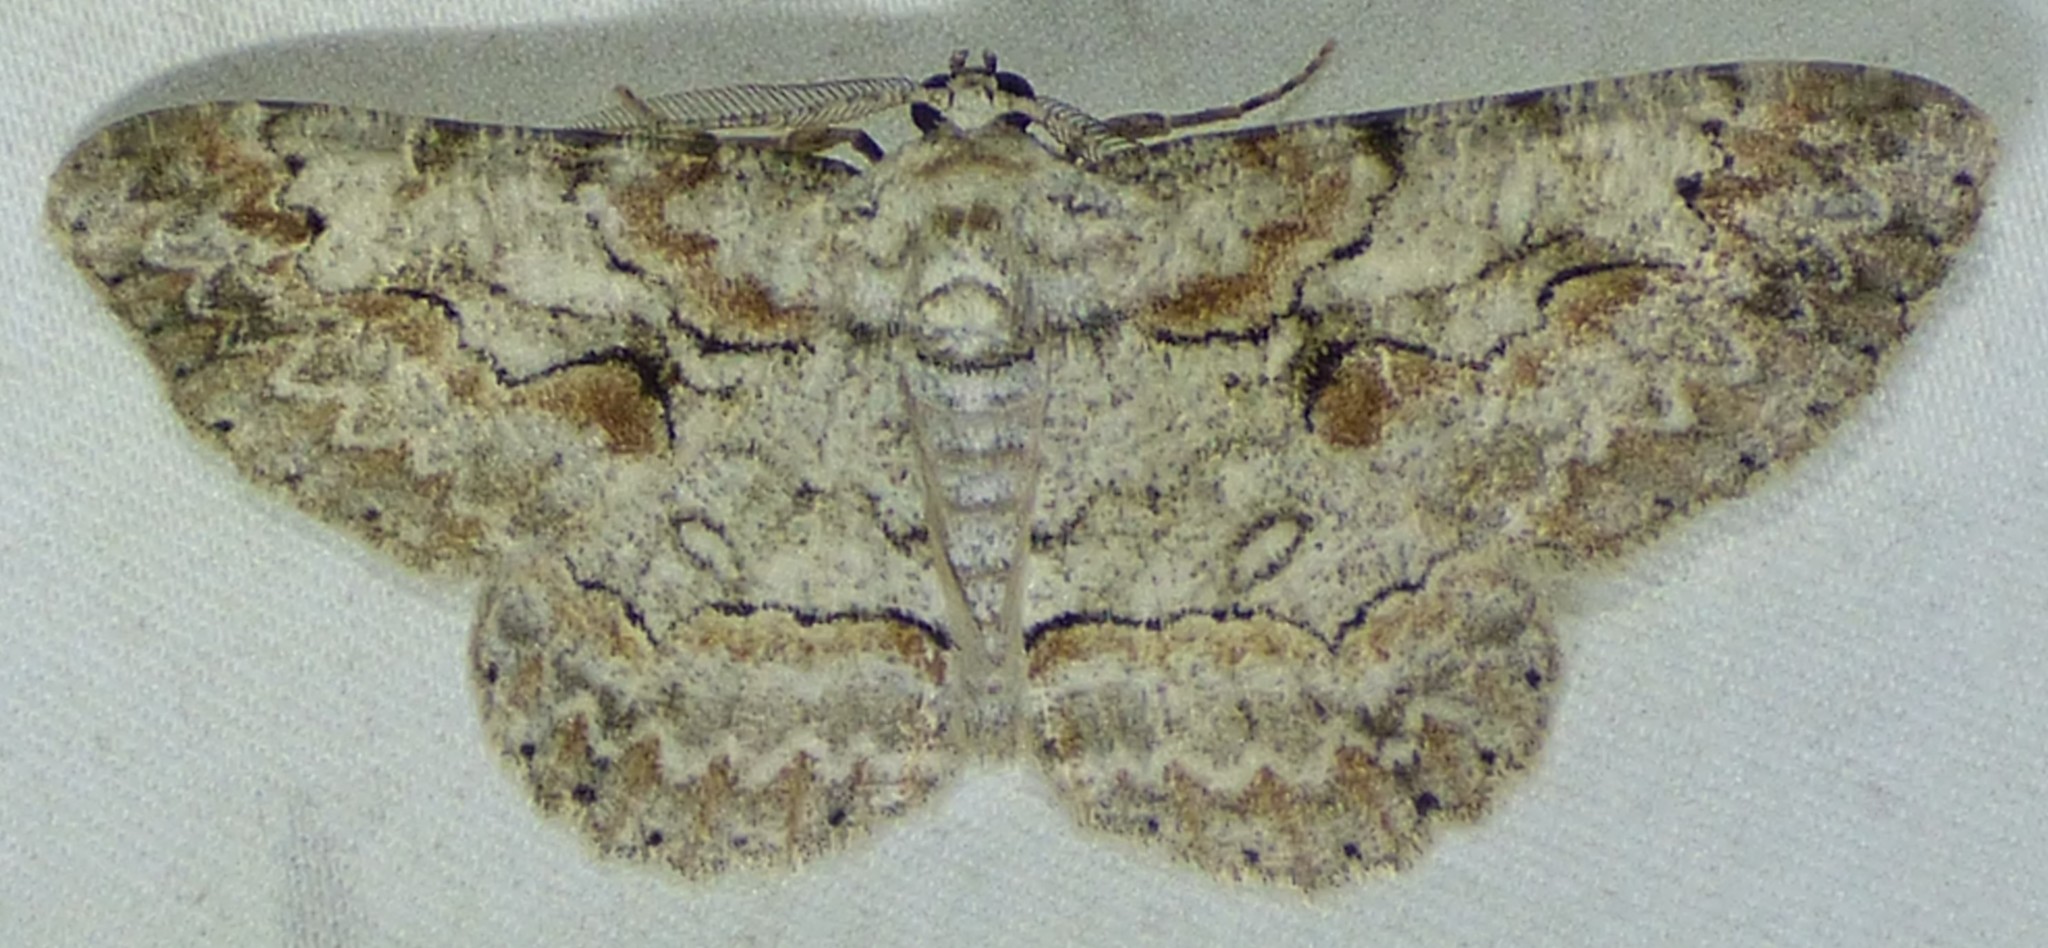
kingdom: Animalia
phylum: Arthropoda
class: Insecta
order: Lepidoptera
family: Geometridae
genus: Iridopsis
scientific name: Iridopsis defectaria
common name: Brown-shaded gray
